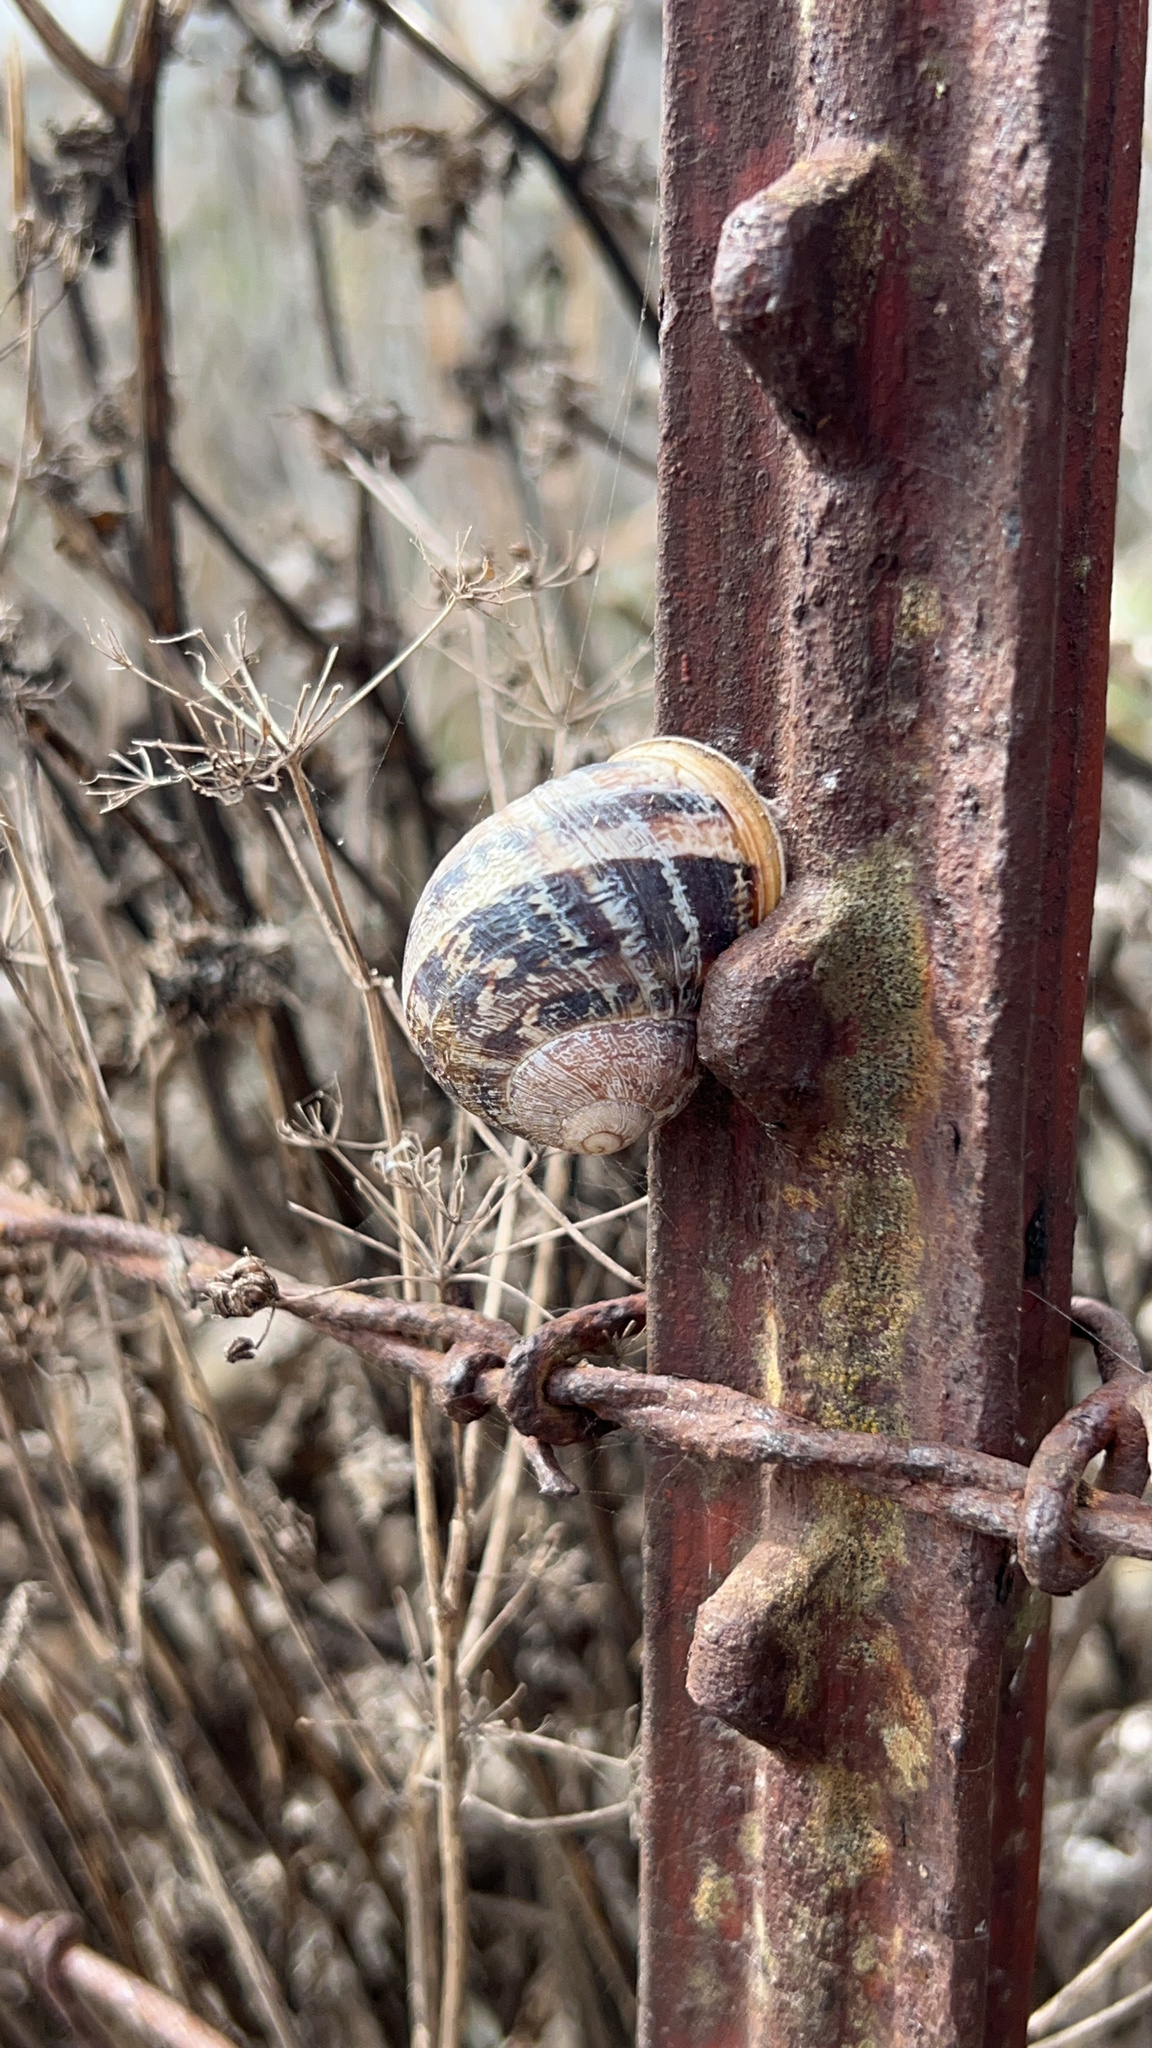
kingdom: Animalia
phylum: Mollusca
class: Gastropoda
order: Stylommatophora
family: Helicidae
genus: Cornu
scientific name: Cornu aspersum
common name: Brown garden snail
